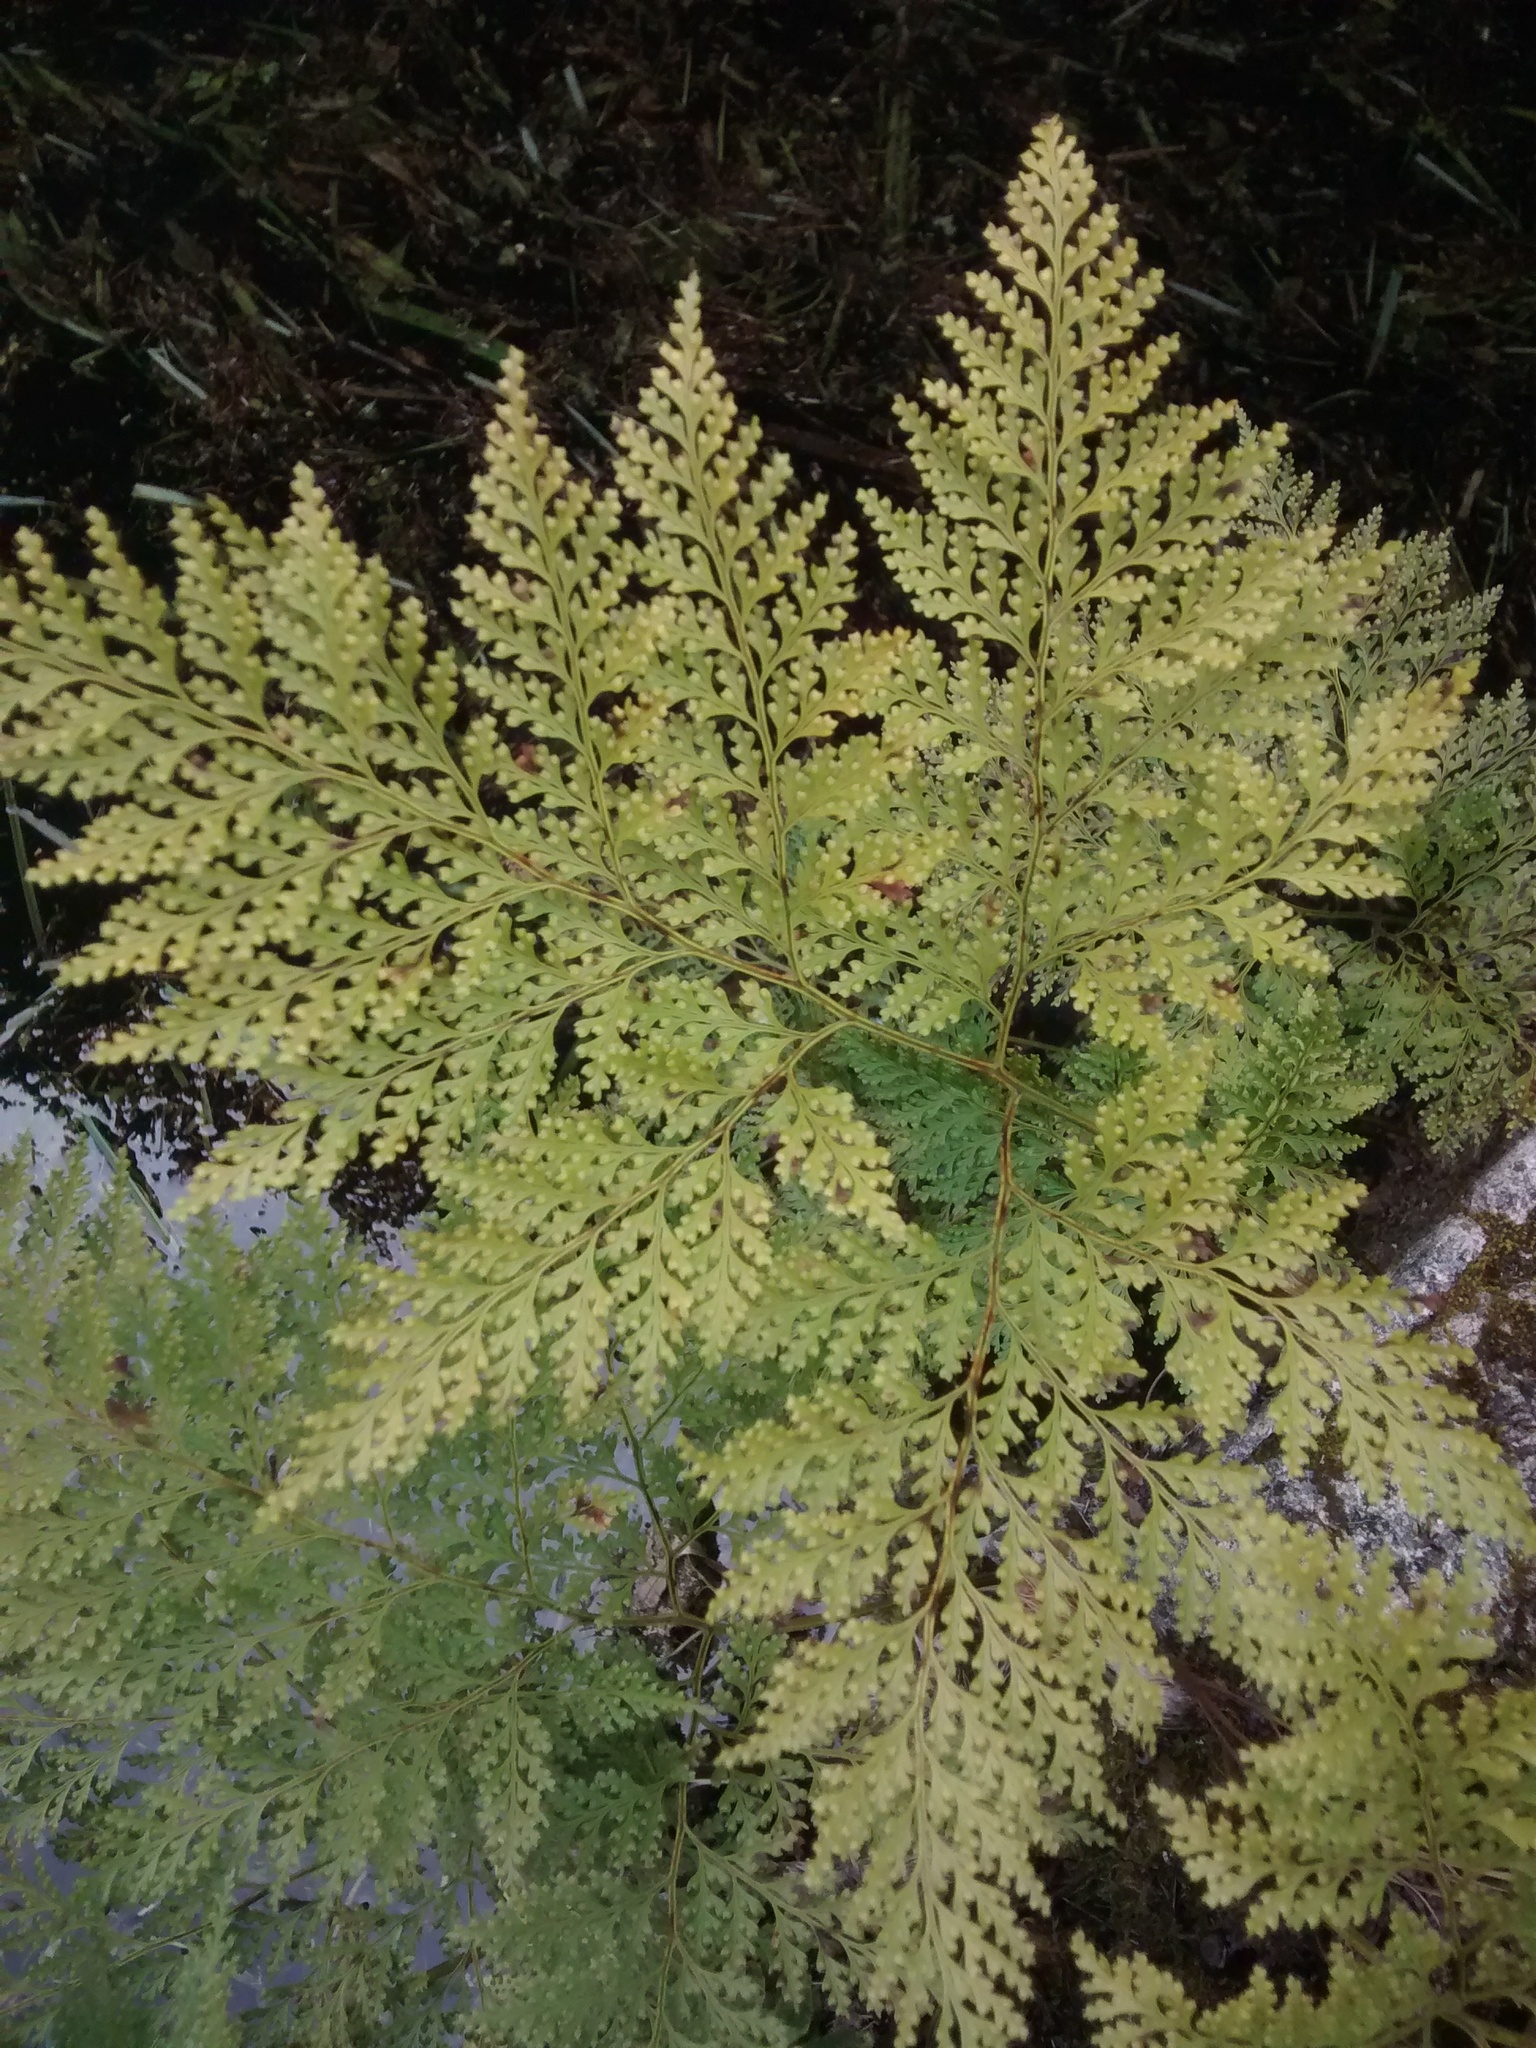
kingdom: Plantae
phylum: Tracheophyta
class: Polypodiopsida
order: Polypodiales
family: Davalliaceae
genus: Davallia
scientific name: Davallia canariensis
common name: Hare's-foot fern
